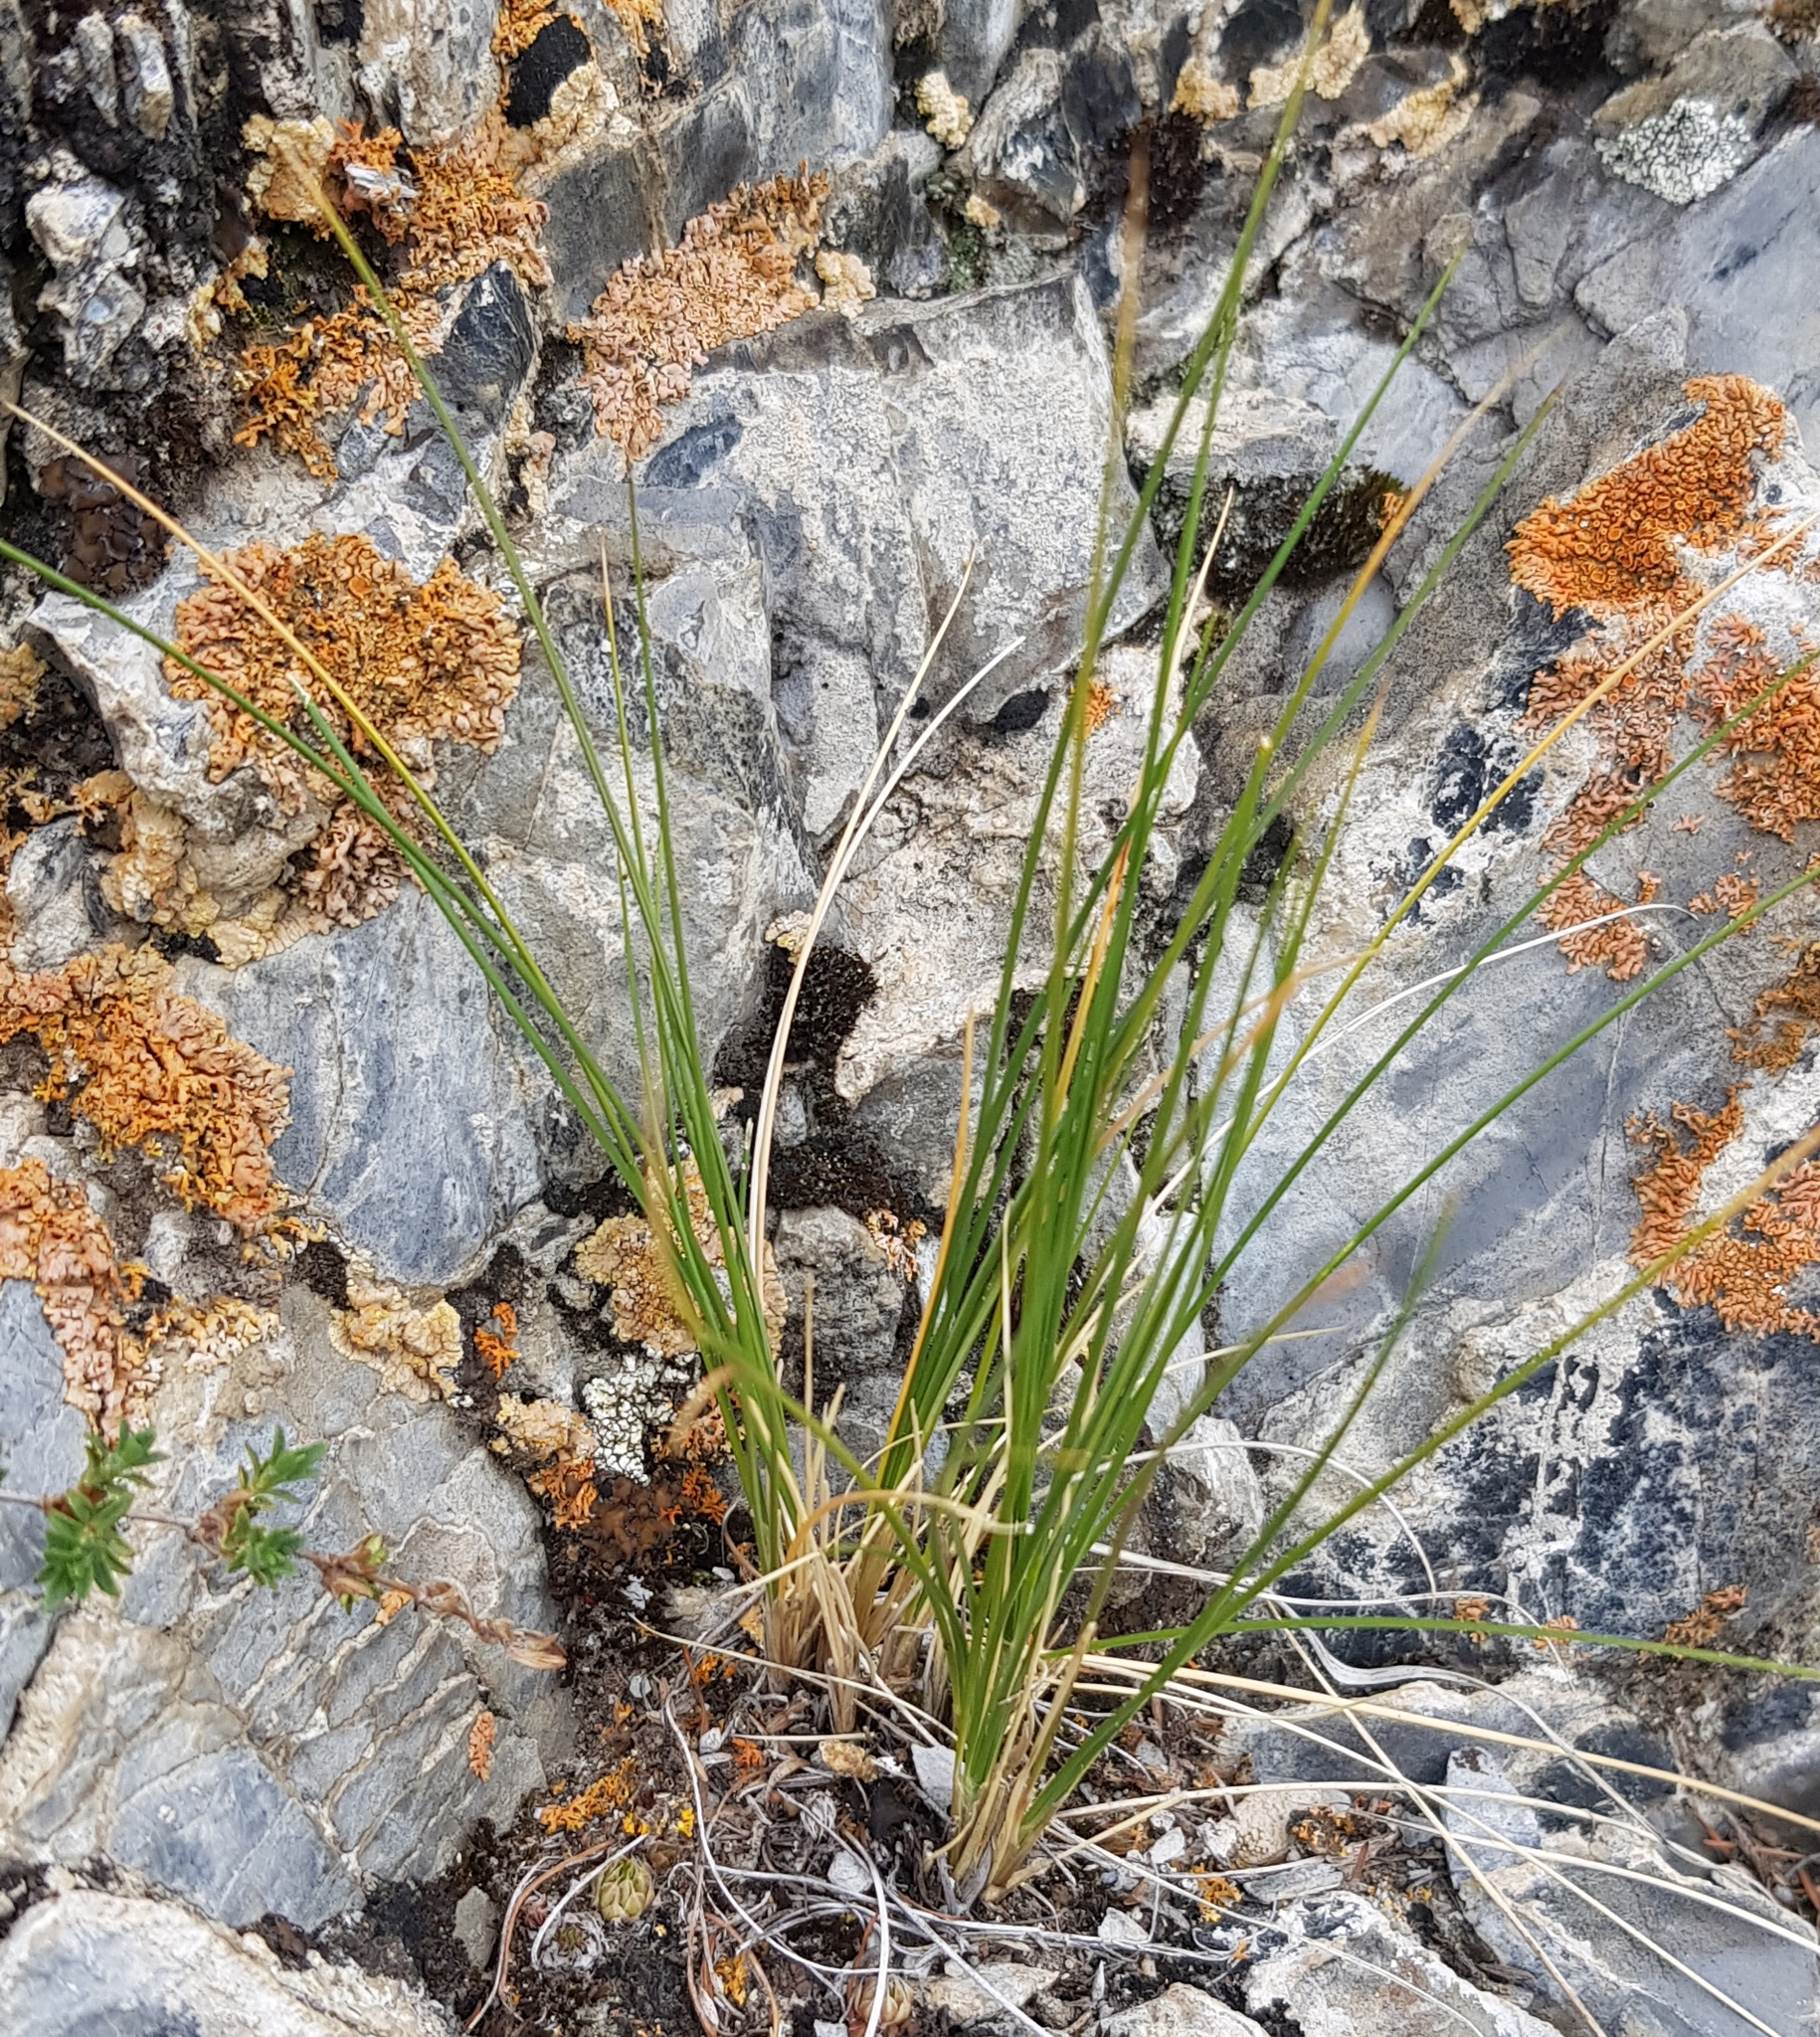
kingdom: Plantae
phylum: Tracheophyta
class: Liliopsida
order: Poales
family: Poaceae
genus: Anthoxanthum
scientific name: Anthoxanthum monticola
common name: Alpine sweetgrass
